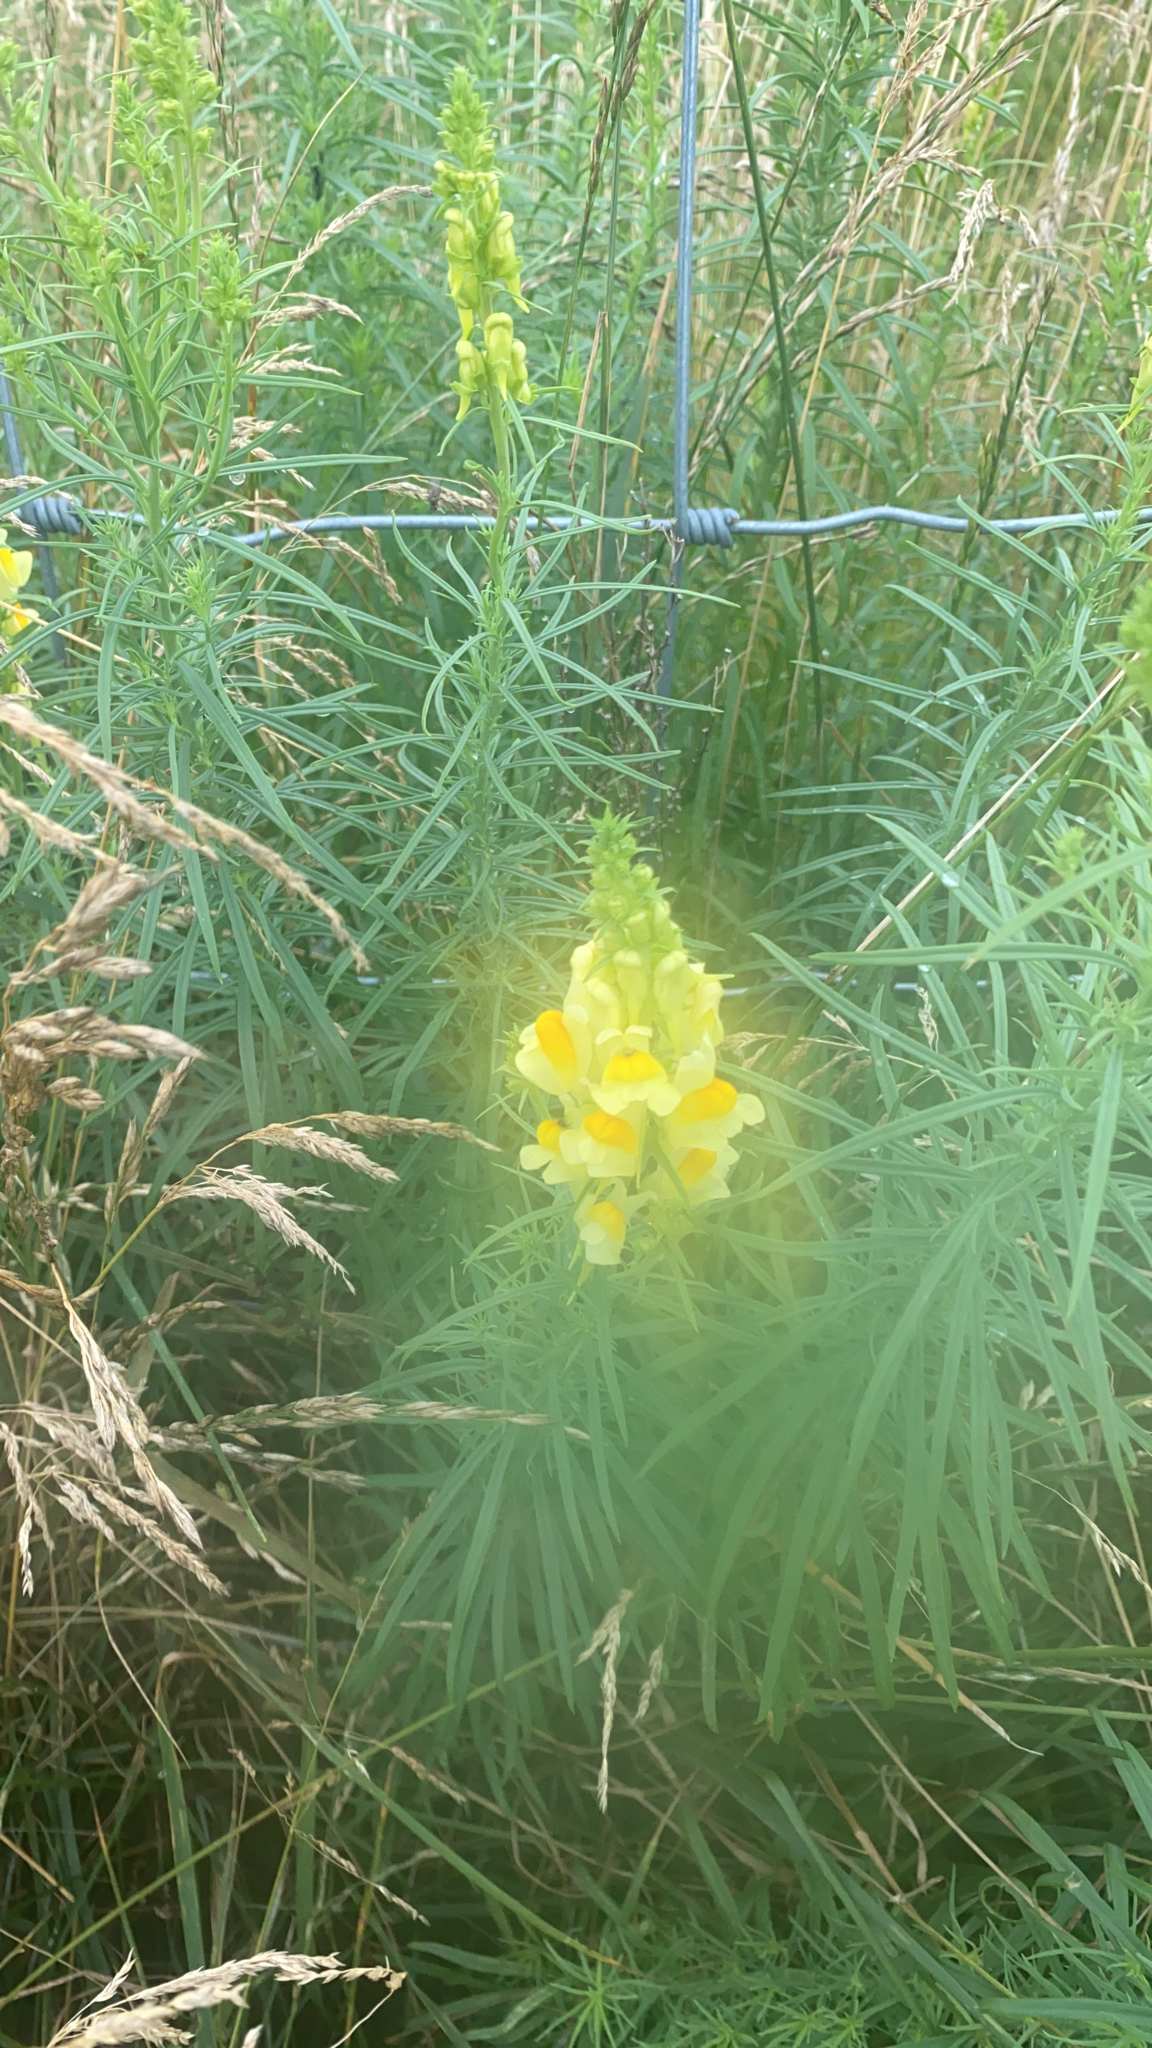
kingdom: Plantae
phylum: Tracheophyta
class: Magnoliopsida
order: Lamiales
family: Plantaginaceae
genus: Linaria
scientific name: Linaria vulgaris
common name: Butter and eggs
